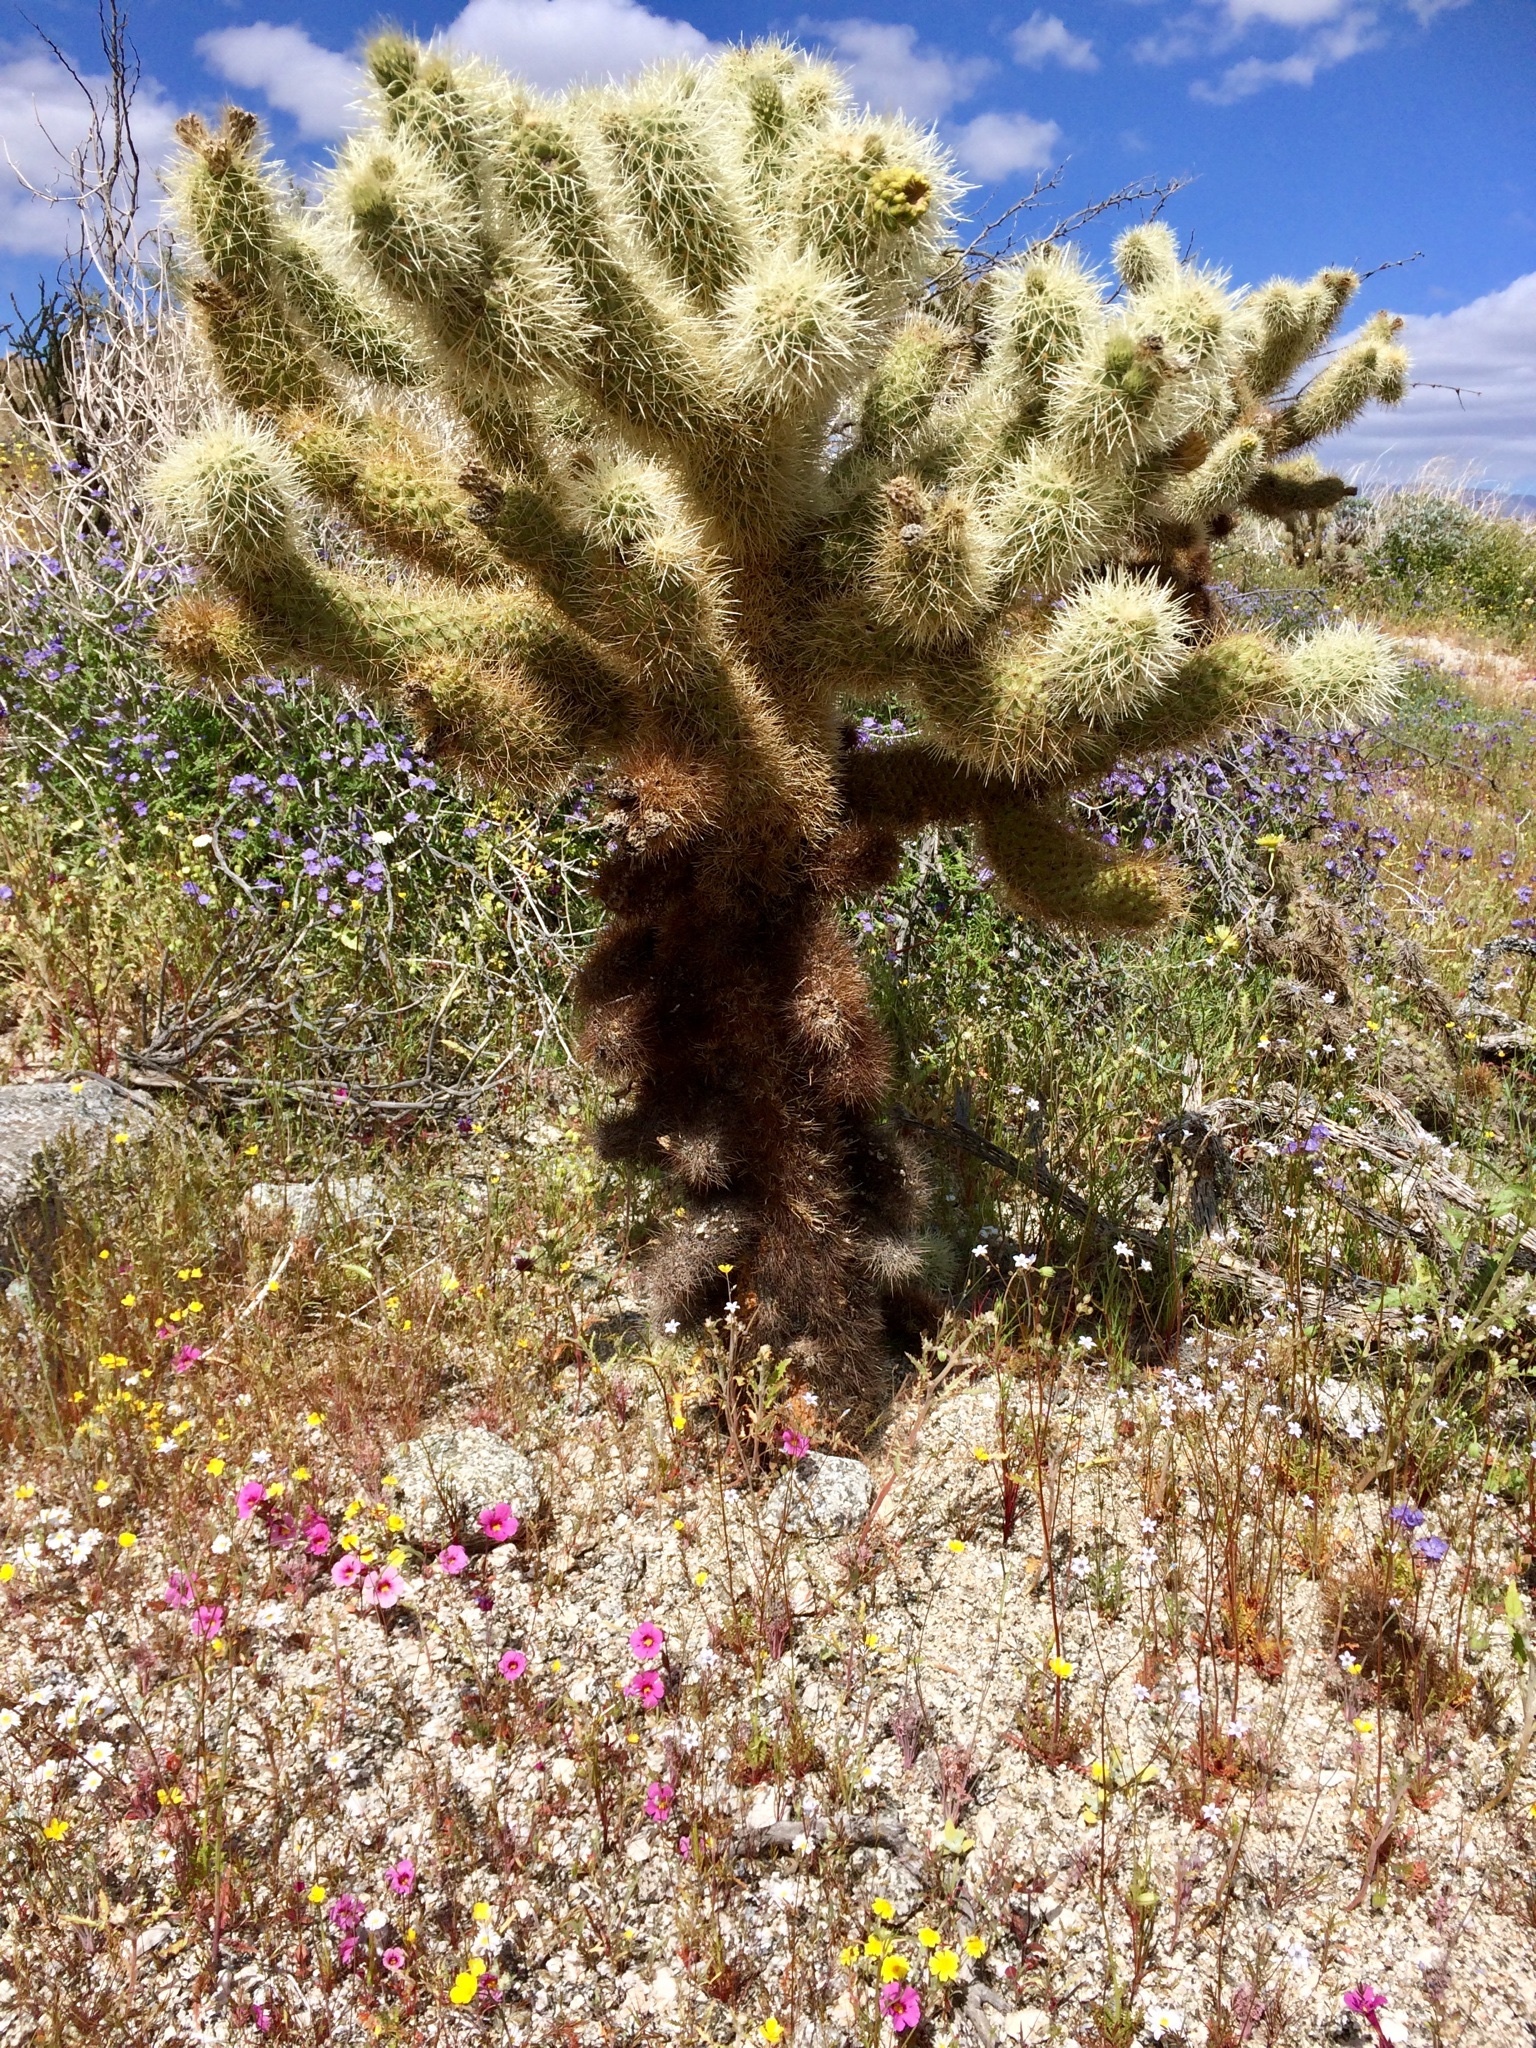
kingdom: Plantae
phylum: Tracheophyta
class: Magnoliopsida
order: Caryophyllales
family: Cactaceae
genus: Cylindropuntia
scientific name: Cylindropuntia fosbergii
